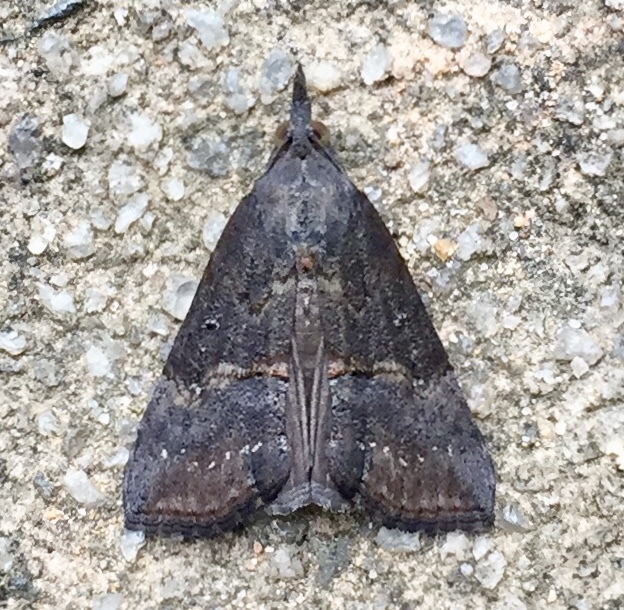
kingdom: Animalia
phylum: Arthropoda
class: Insecta
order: Lepidoptera
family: Erebidae
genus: Hypena
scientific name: Hypena scabra
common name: Green cloverworm
